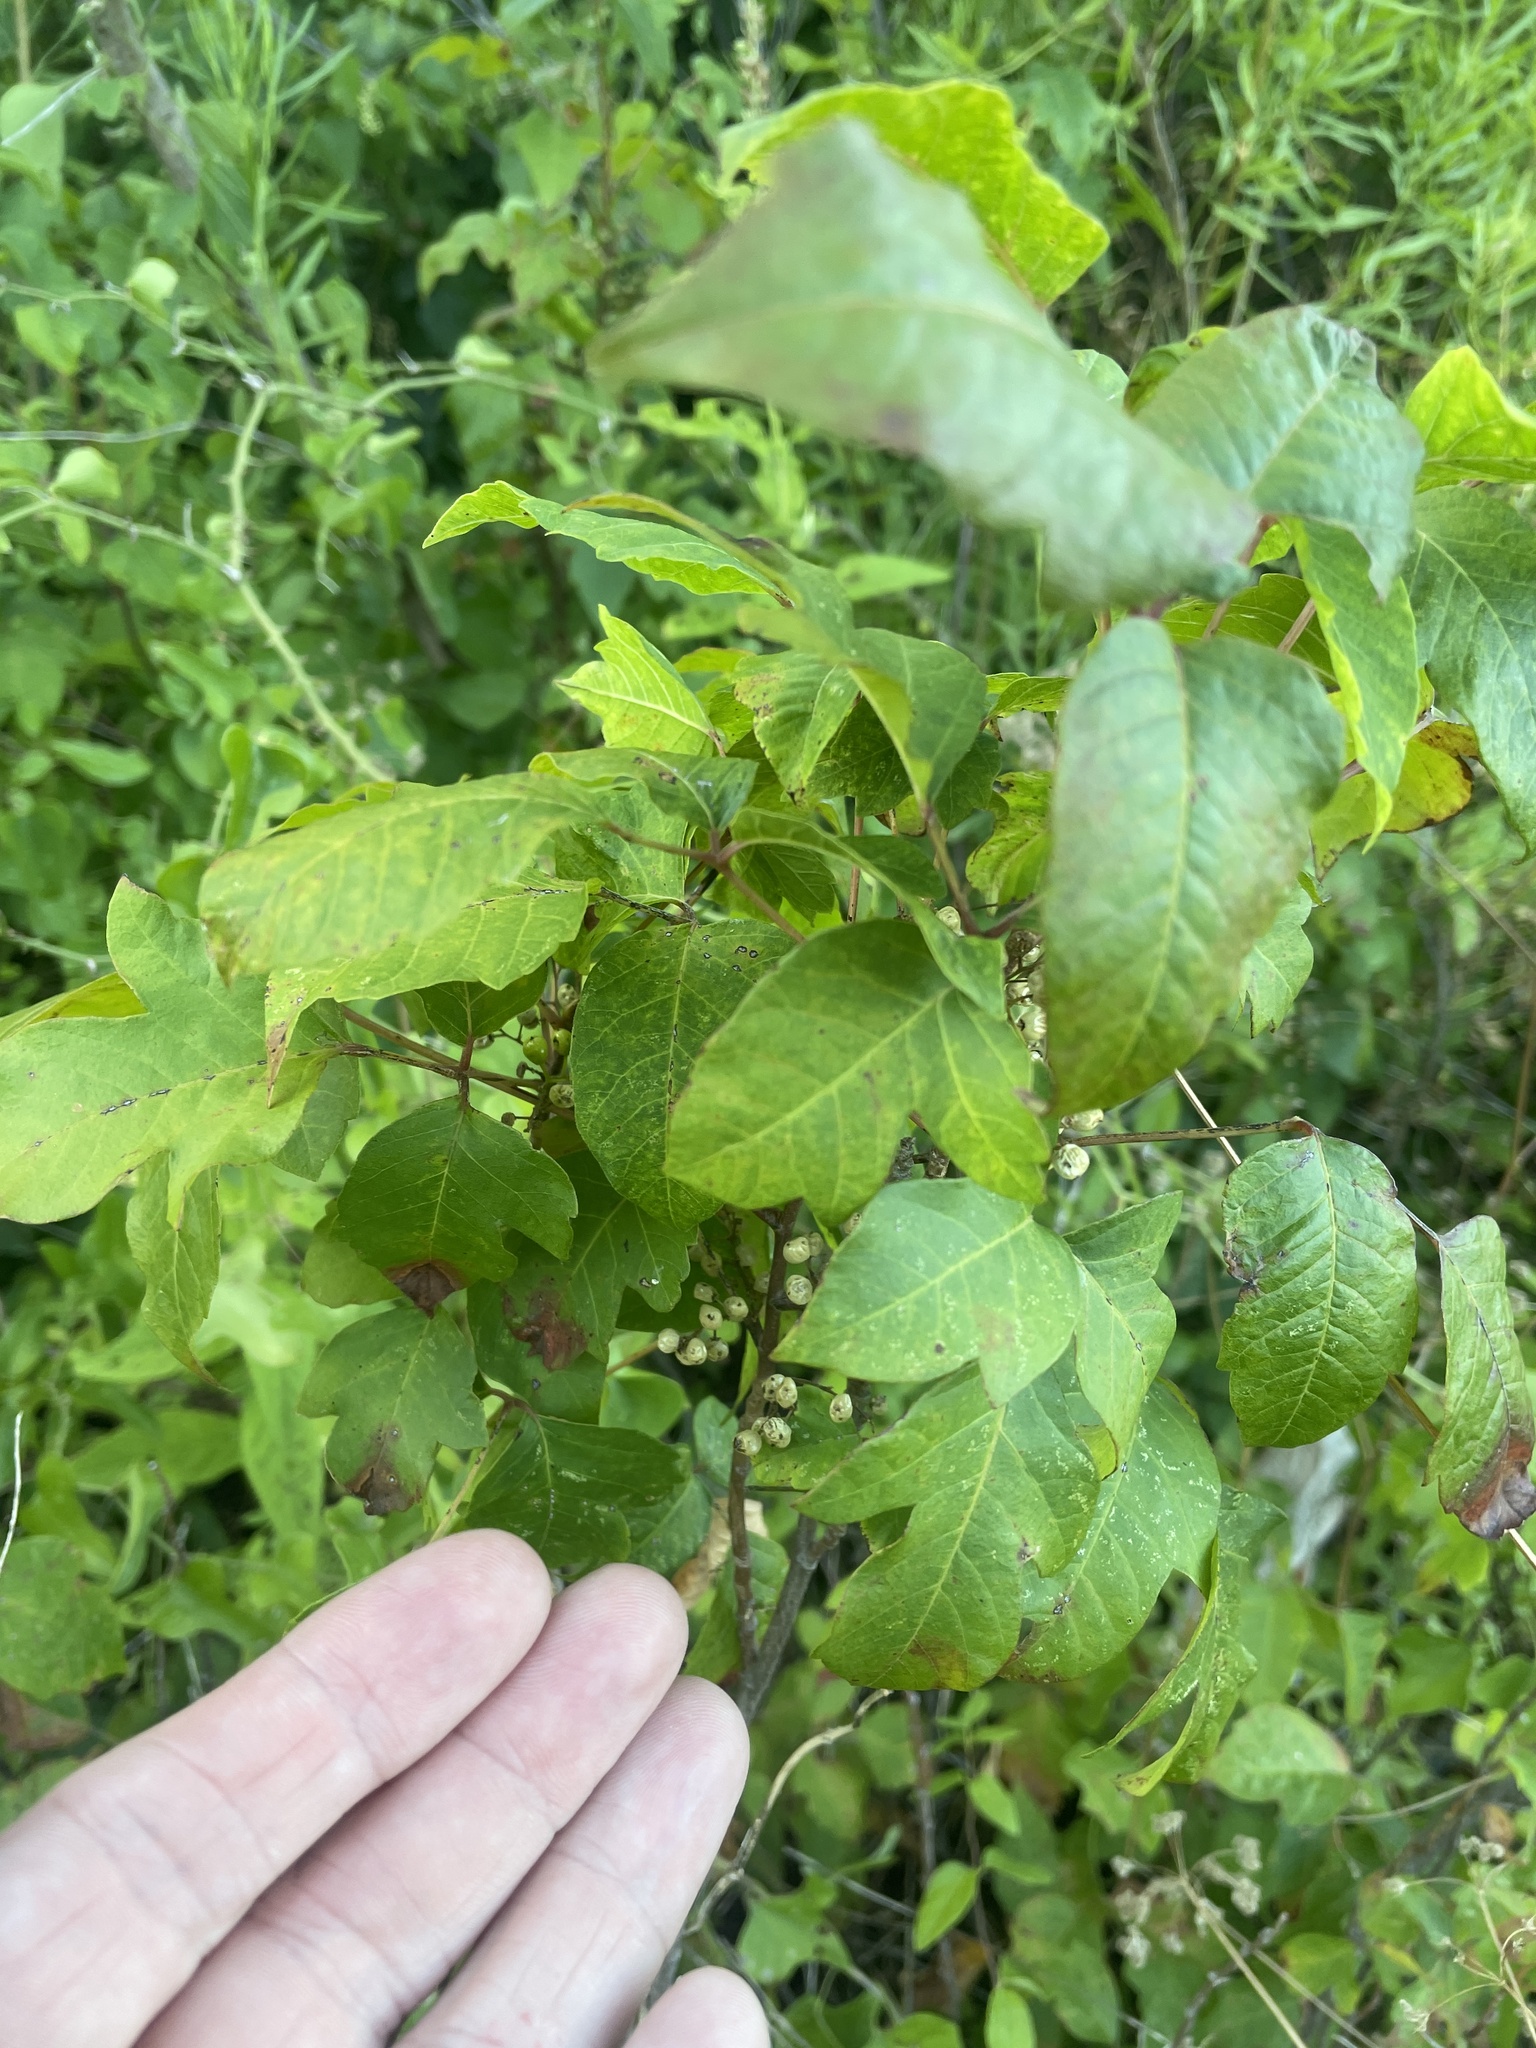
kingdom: Plantae
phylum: Tracheophyta
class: Magnoliopsida
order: Sapindales
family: Anacardiaceae
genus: Toxicodendron
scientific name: Toxicodendron radicans
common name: Poison ivy
